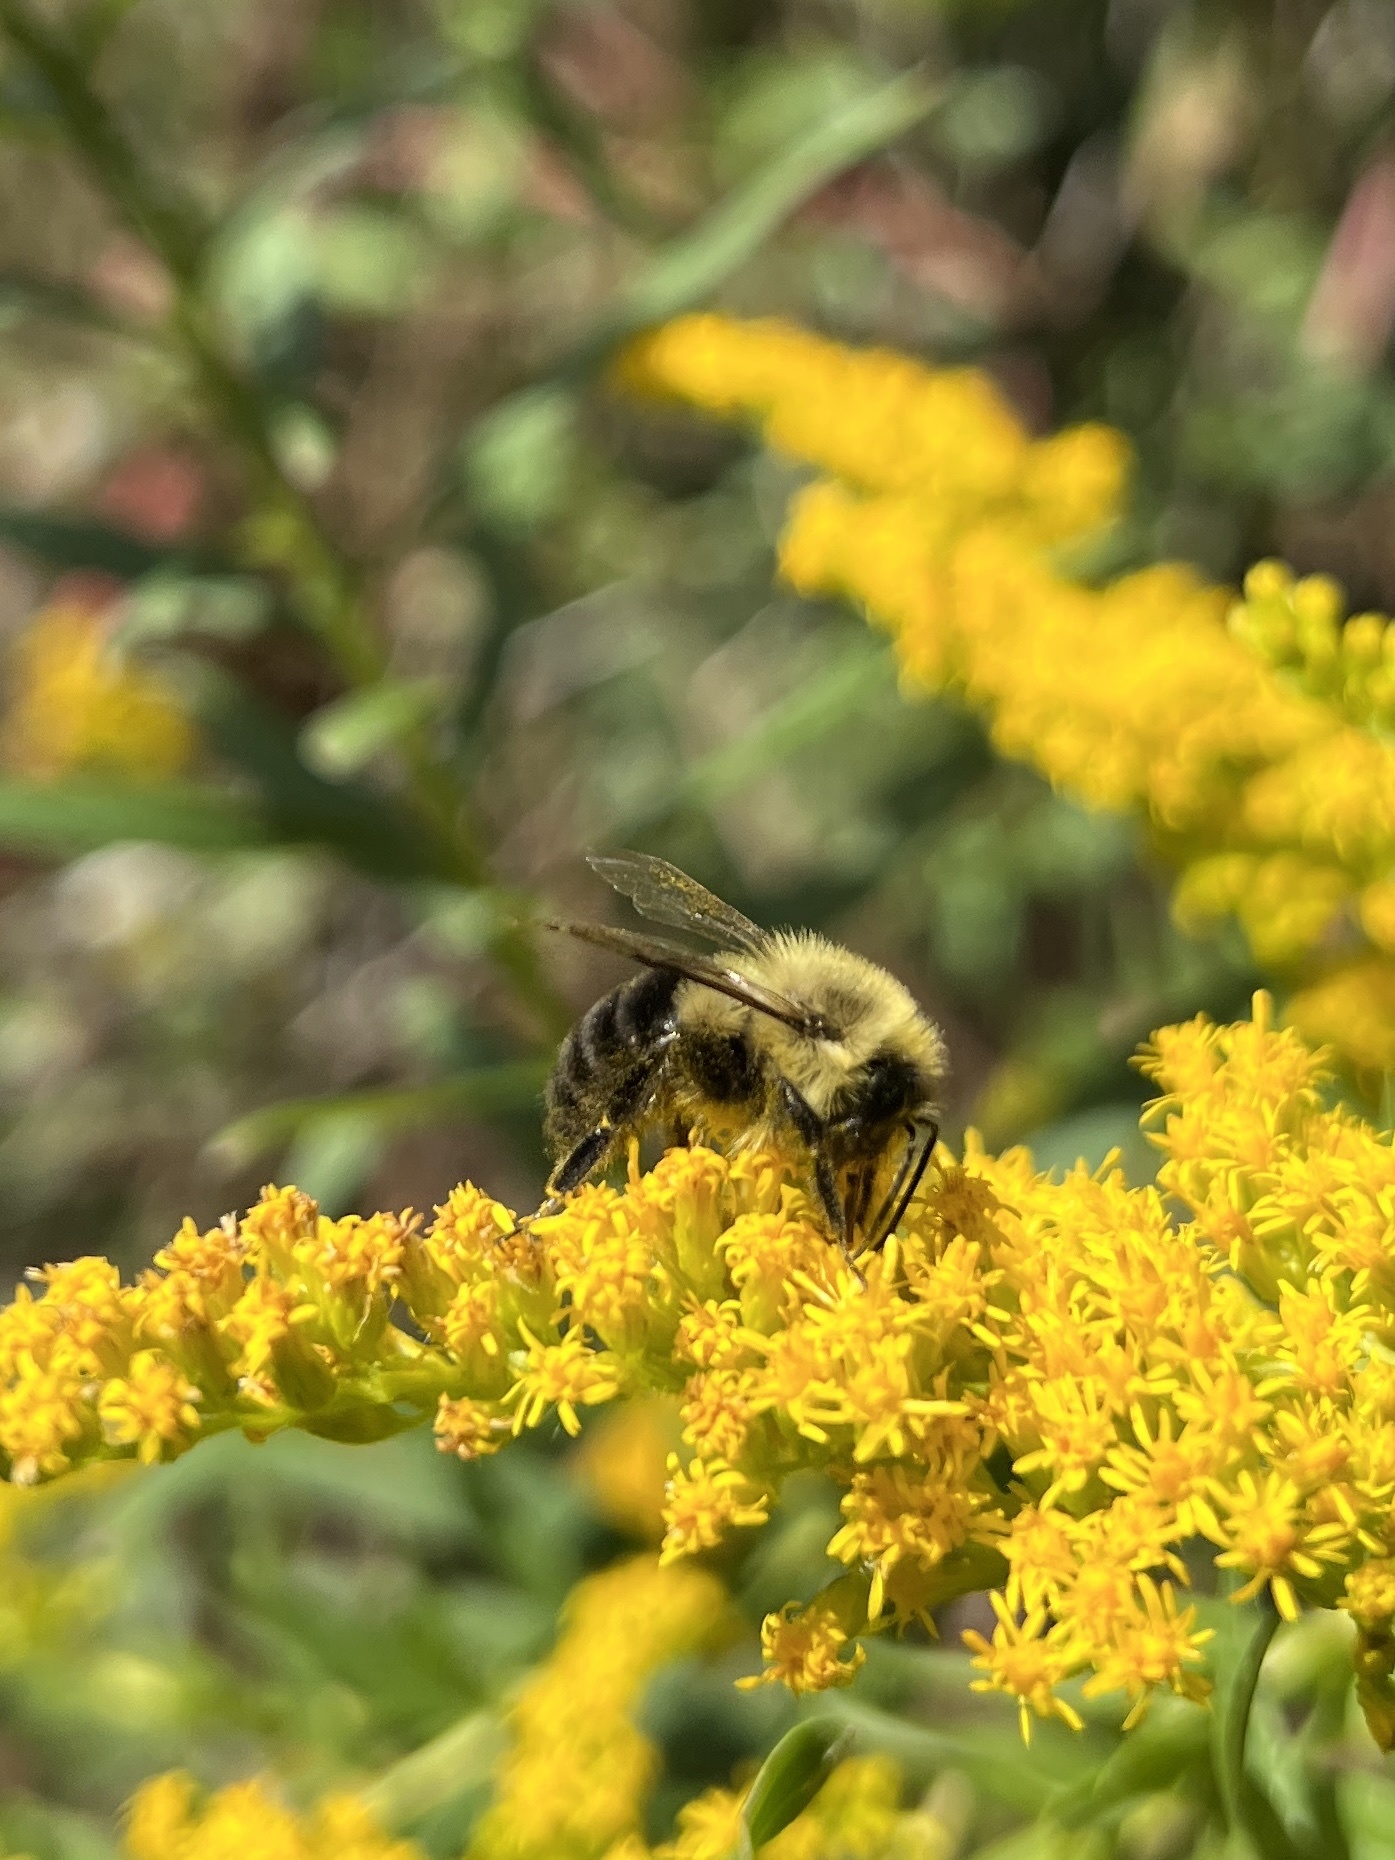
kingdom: Animalia
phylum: Arthropoda
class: Insecta
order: Hymenoptera
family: Apidae
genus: Bombus
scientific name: Bombus impatiens
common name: Common eastern bumble bee
